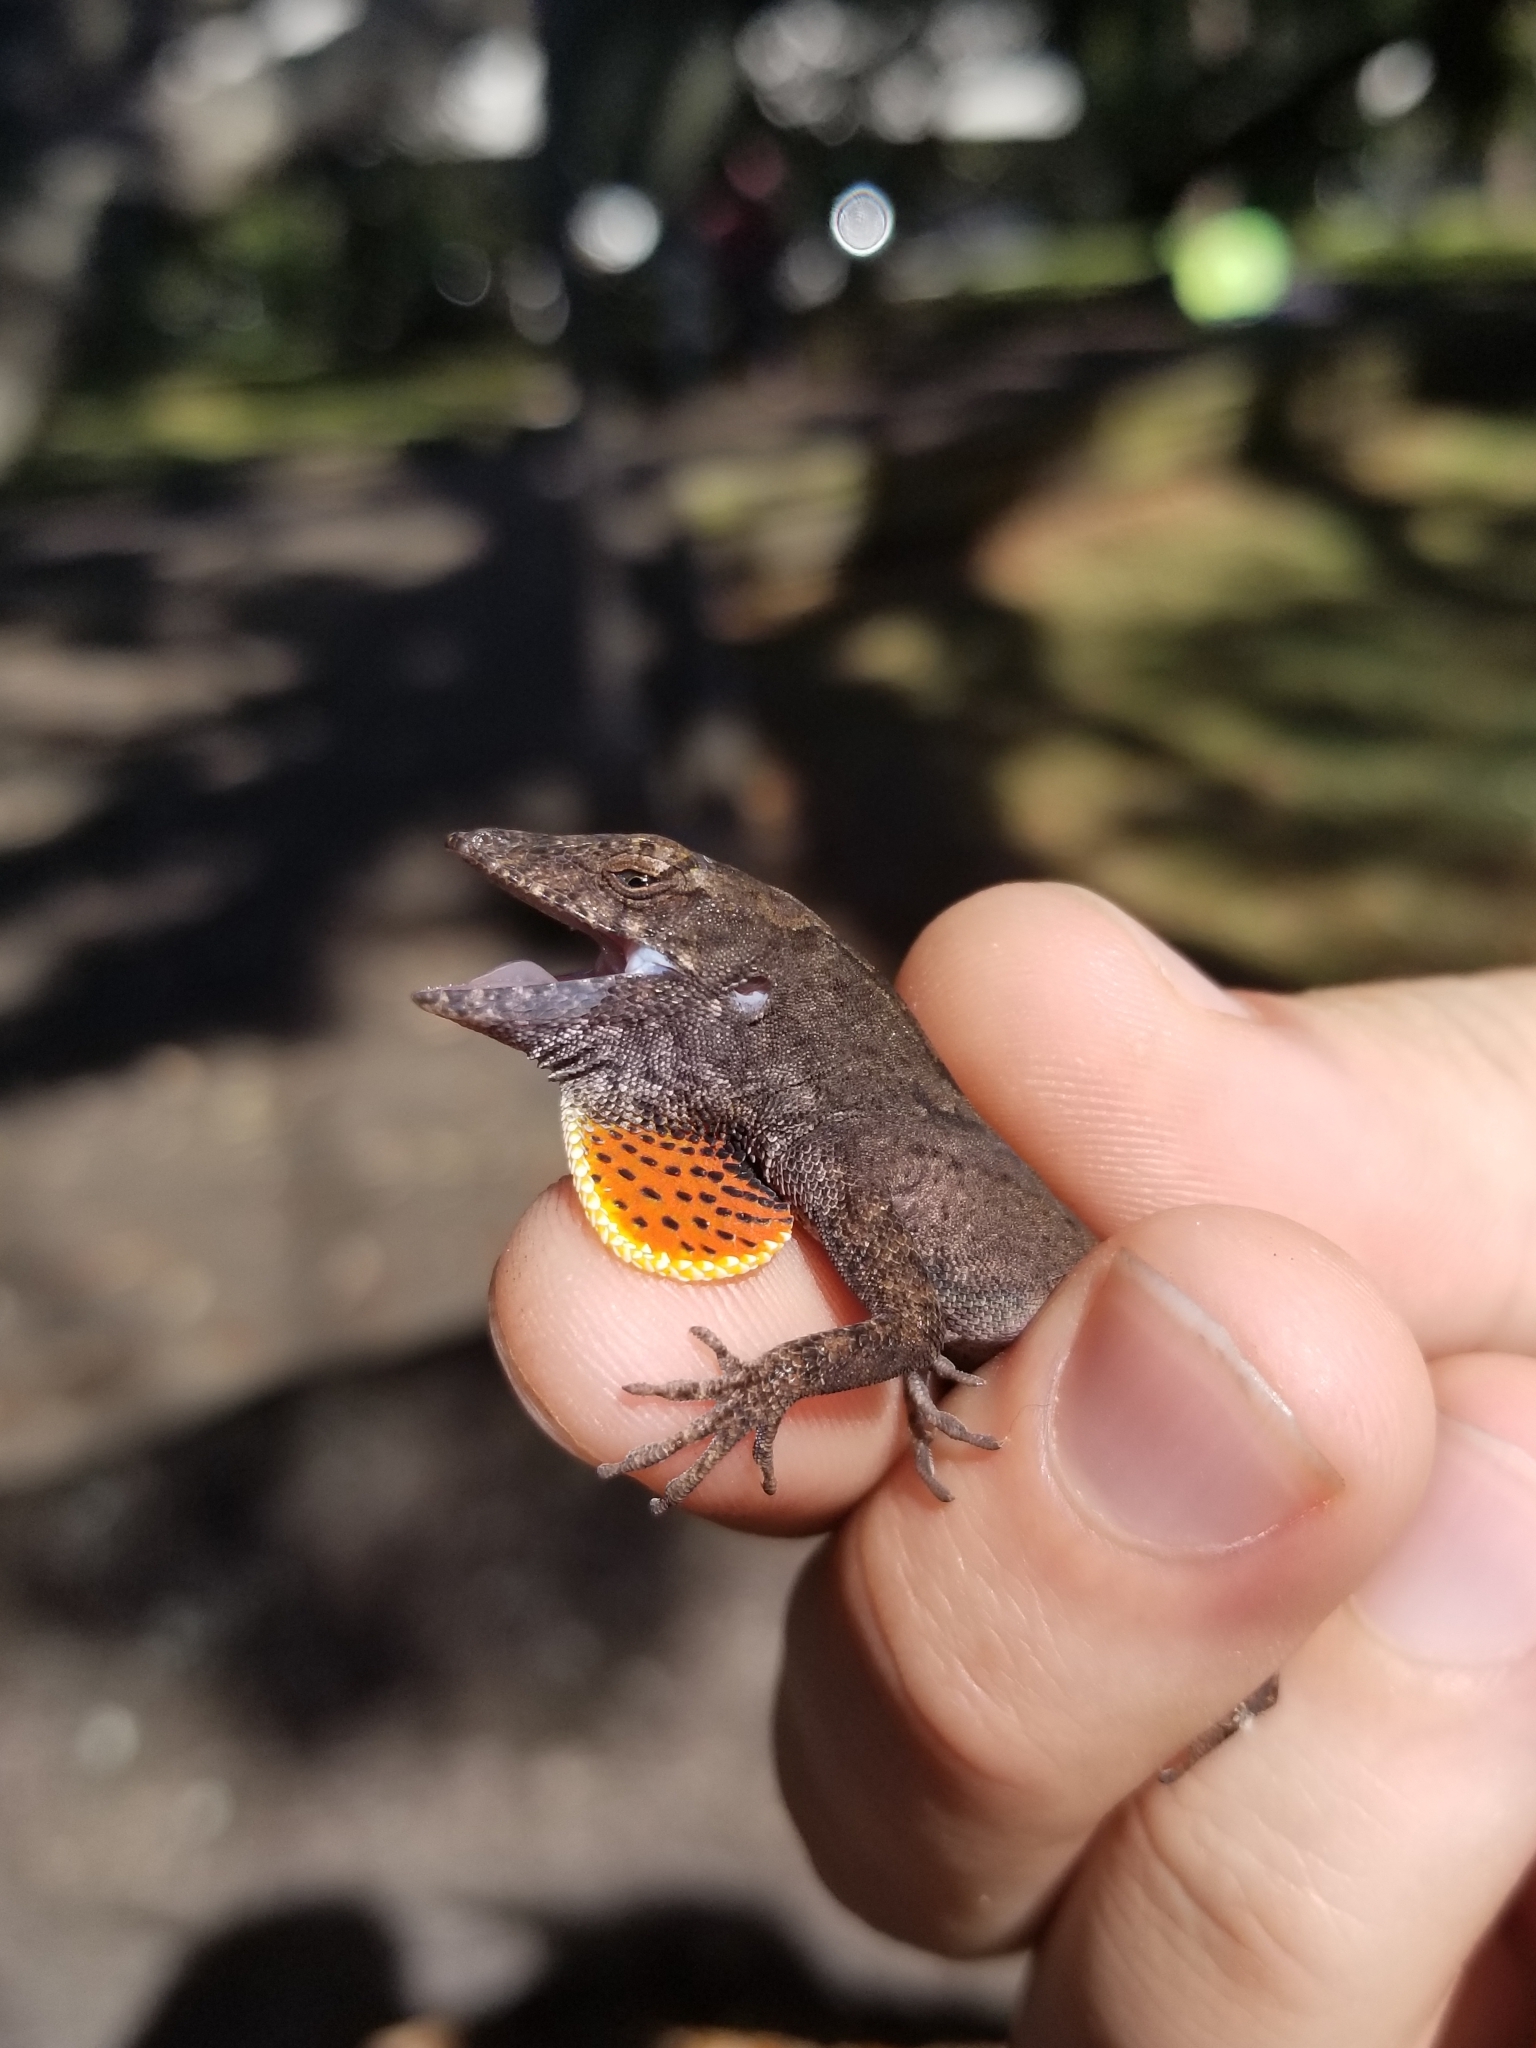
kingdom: Animalia
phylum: Chordata
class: Squamata
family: Dactyloidae
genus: Anolis
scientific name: Anolis sagrei
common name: Brown anole
